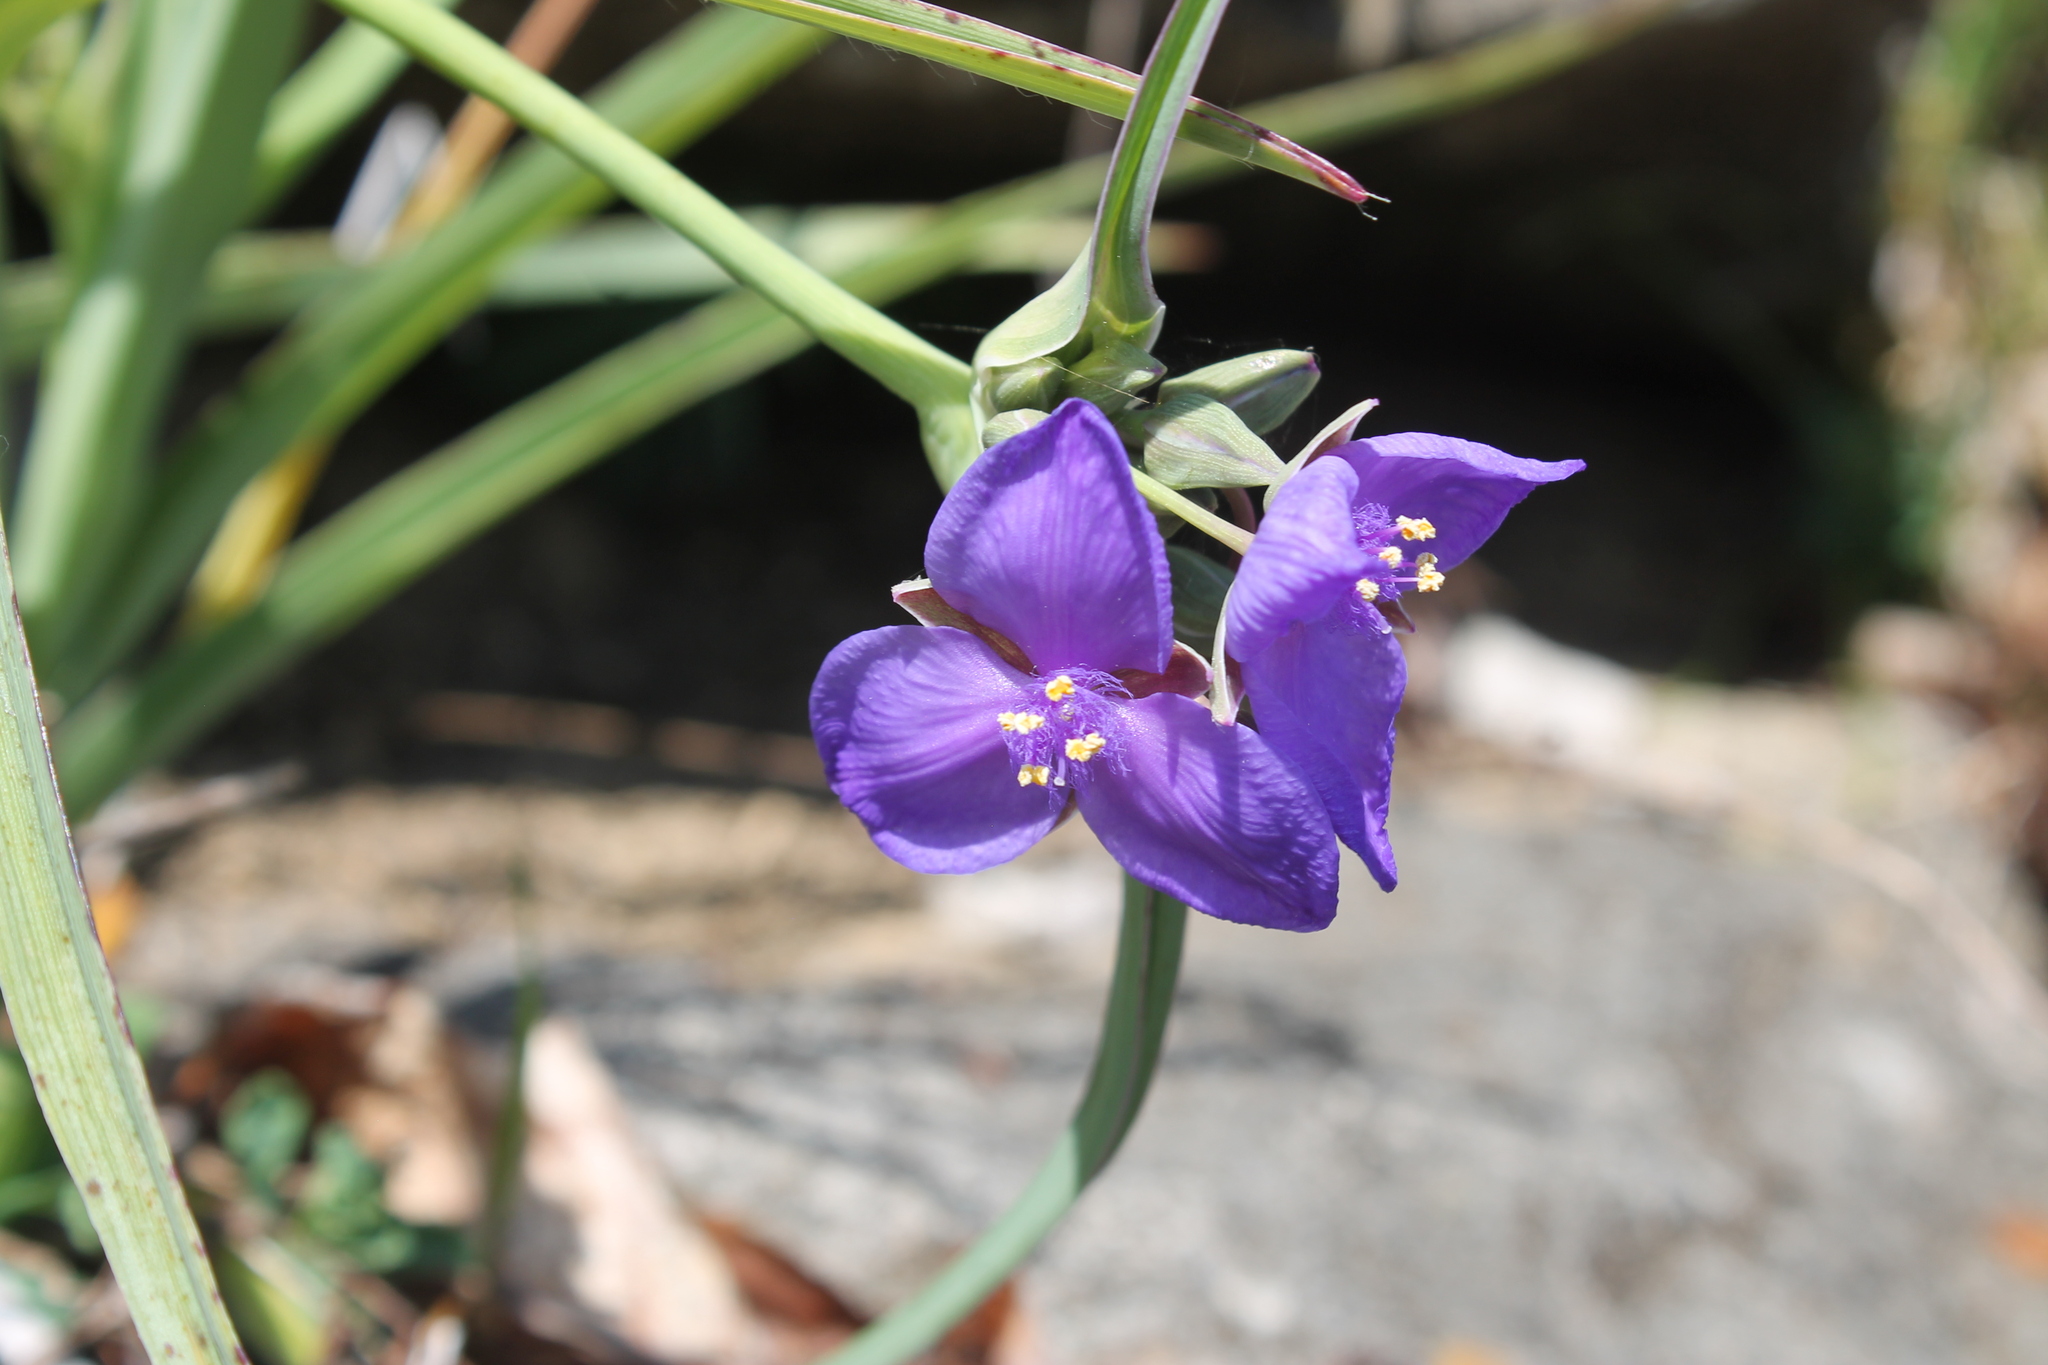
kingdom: Plantae
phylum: Tracheophyta
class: Liliopsida
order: Commelinales
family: Commelinaceae
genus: Tradescantia
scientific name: Tradescantia ohiensis
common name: Ohio spiderwort
